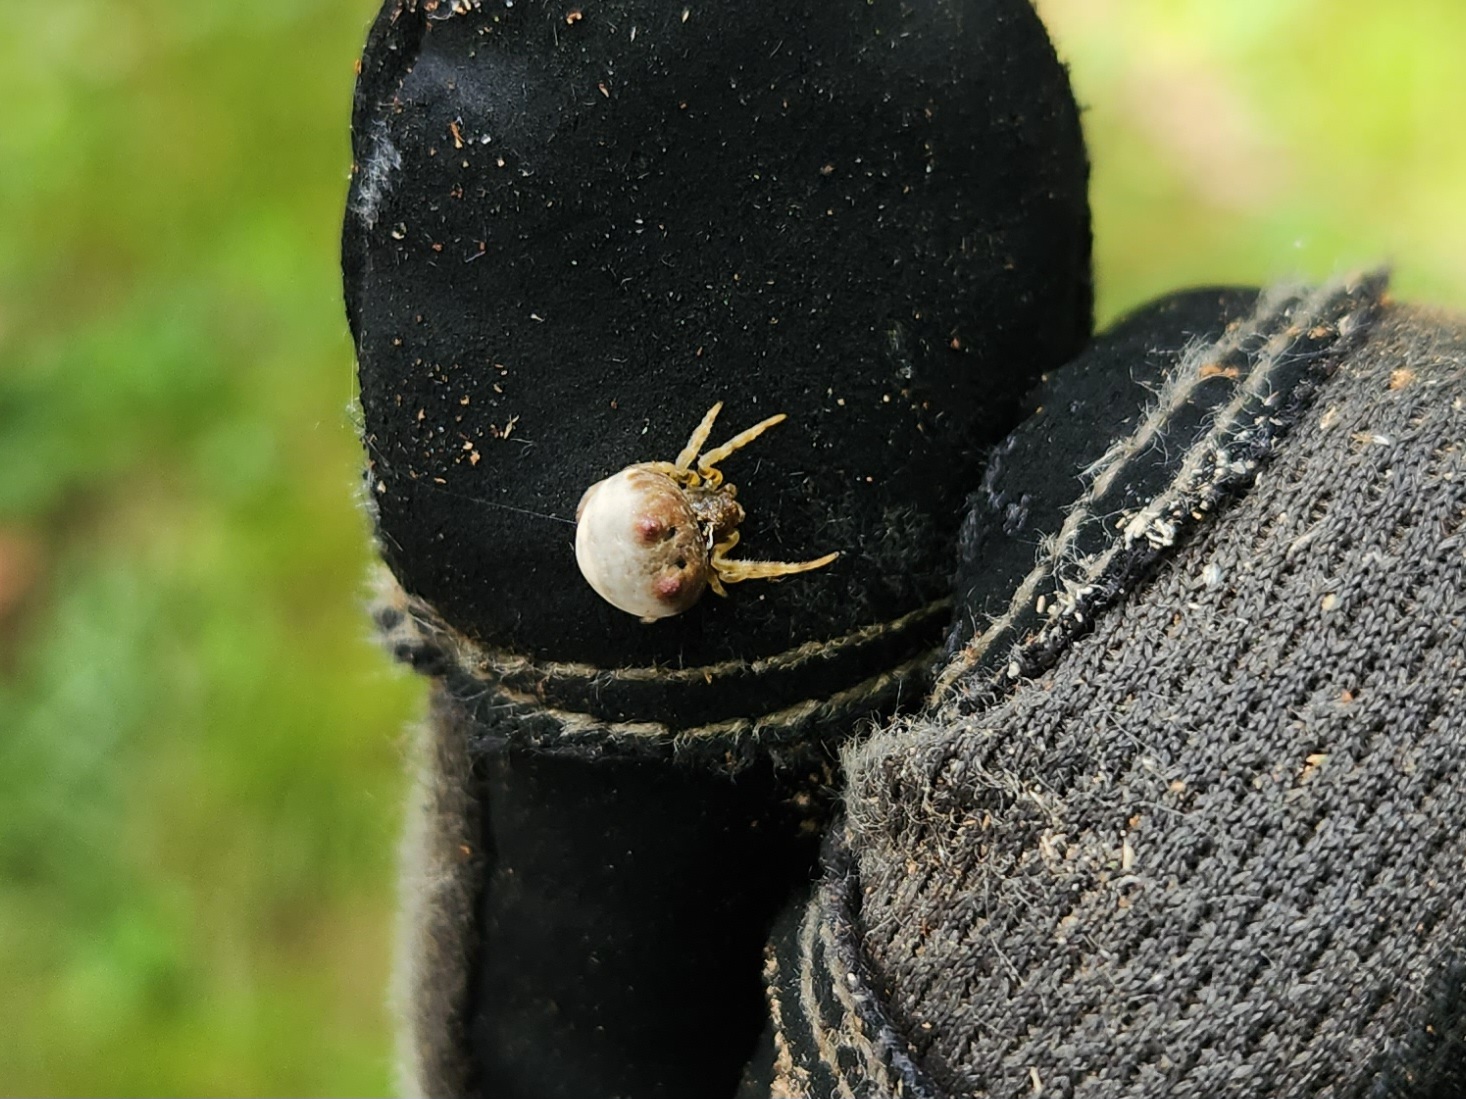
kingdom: Animalia
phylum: Arthropoda
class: Arachnida
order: Araneae
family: Araneidae
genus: Mastophora
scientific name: Mastophora hutchinsoni
